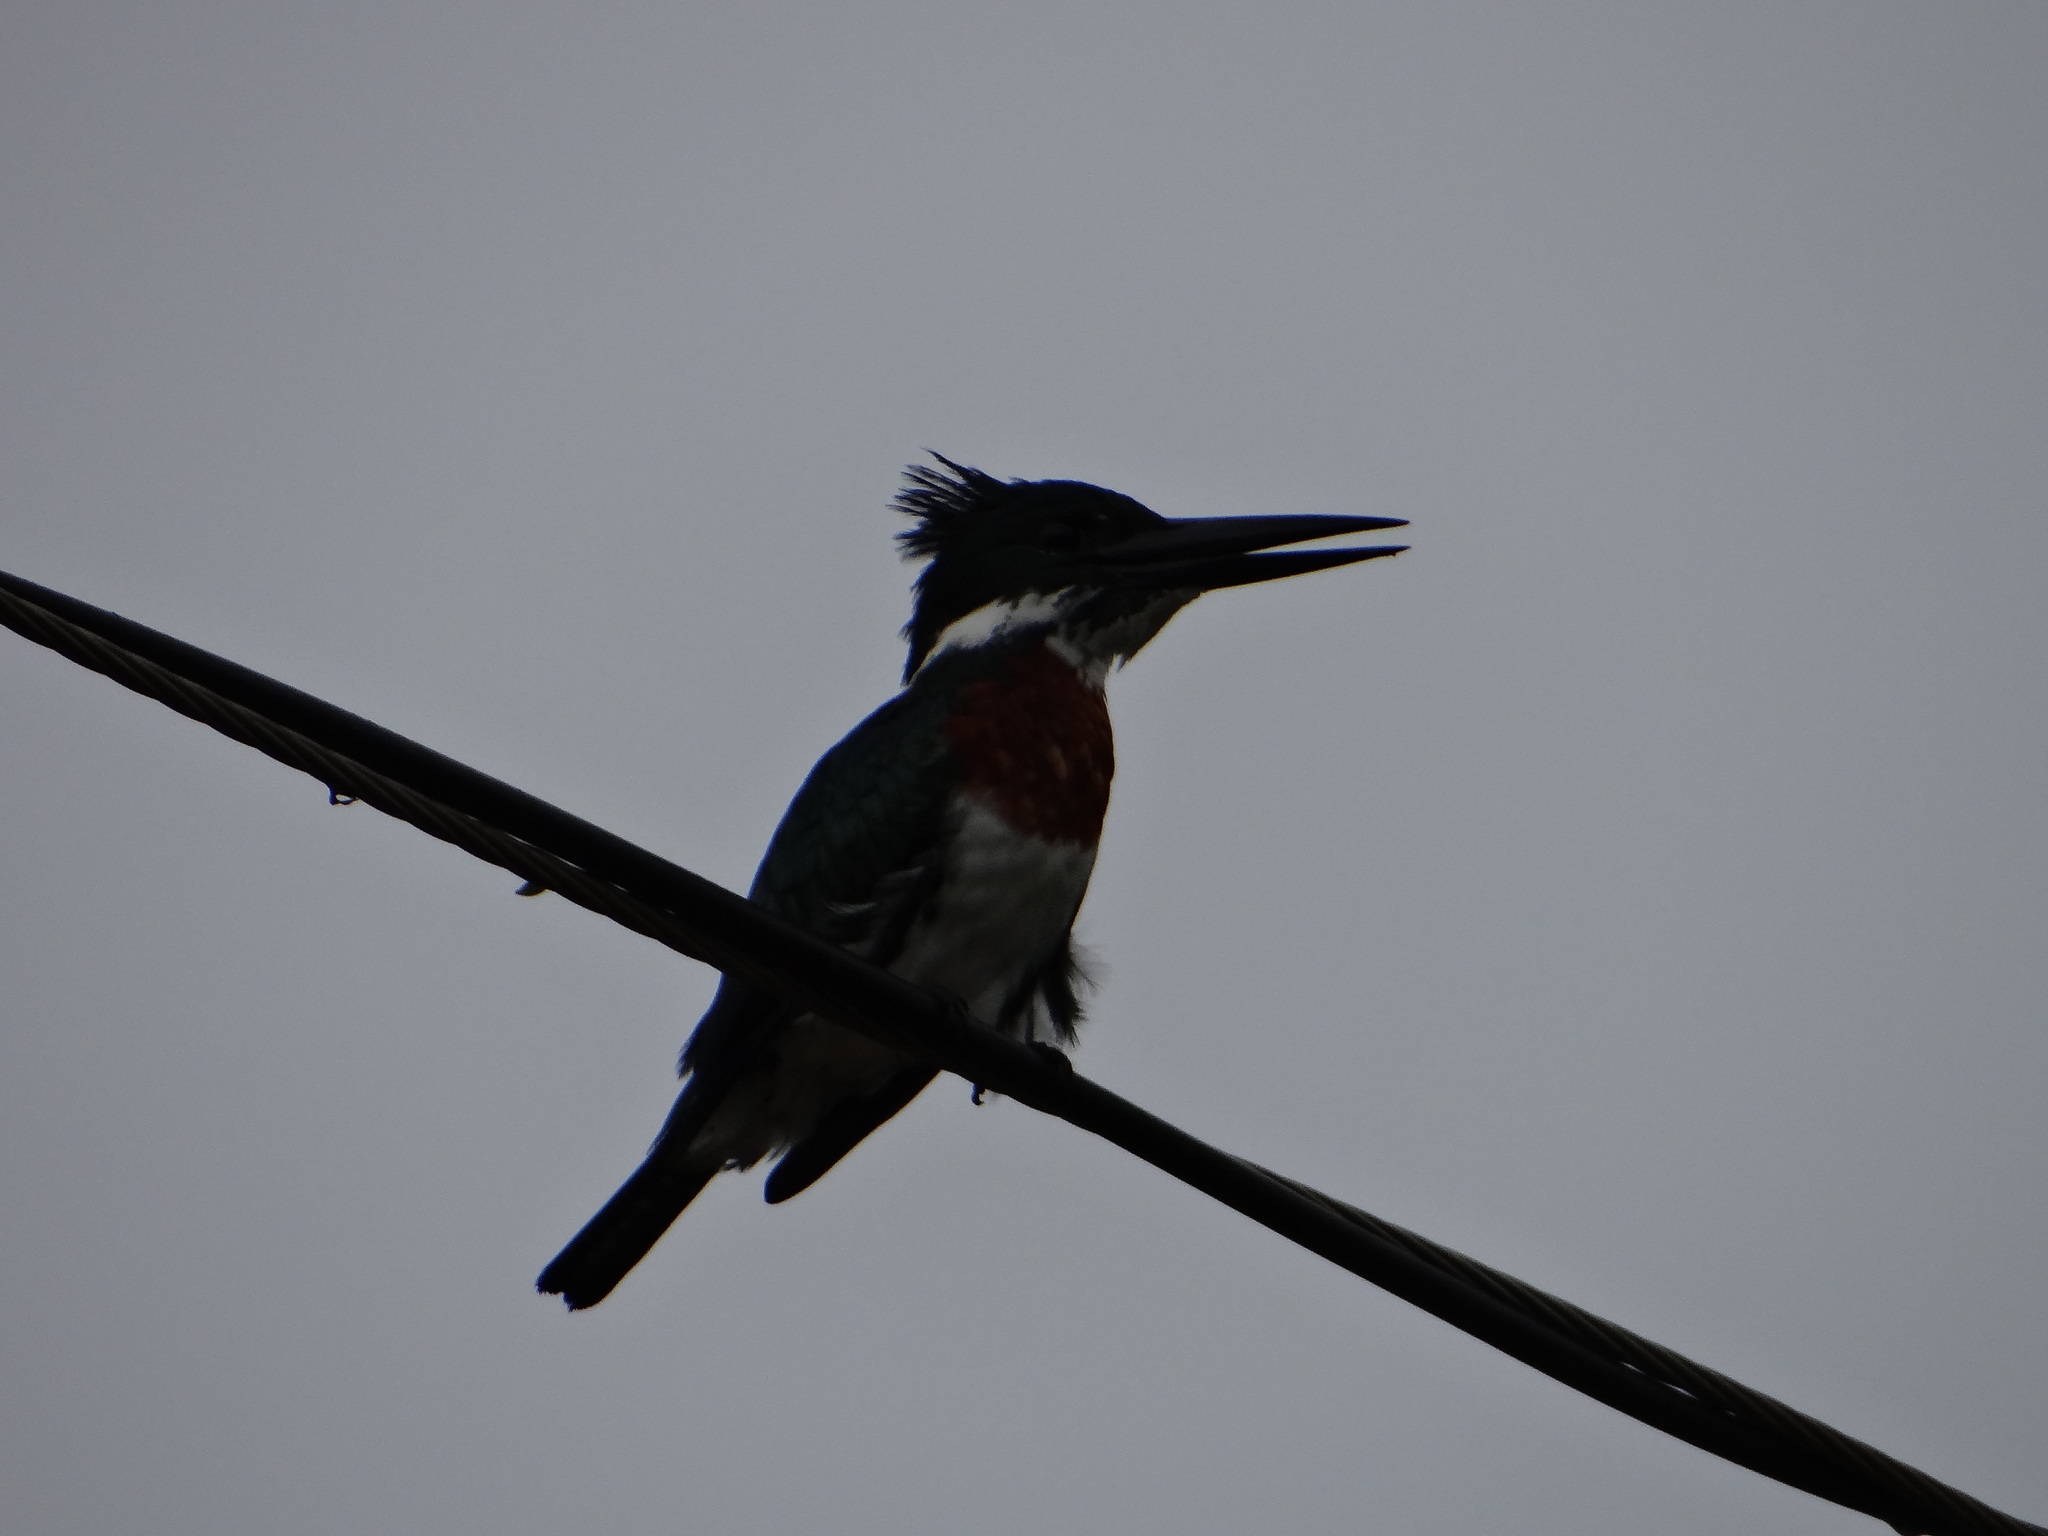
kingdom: Animalia
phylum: Chordata
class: Aves
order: Coraciiformes
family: Alcedinidae
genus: Chloroceryle
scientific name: Chloroceryle amazona
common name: Amazon kingfisher
